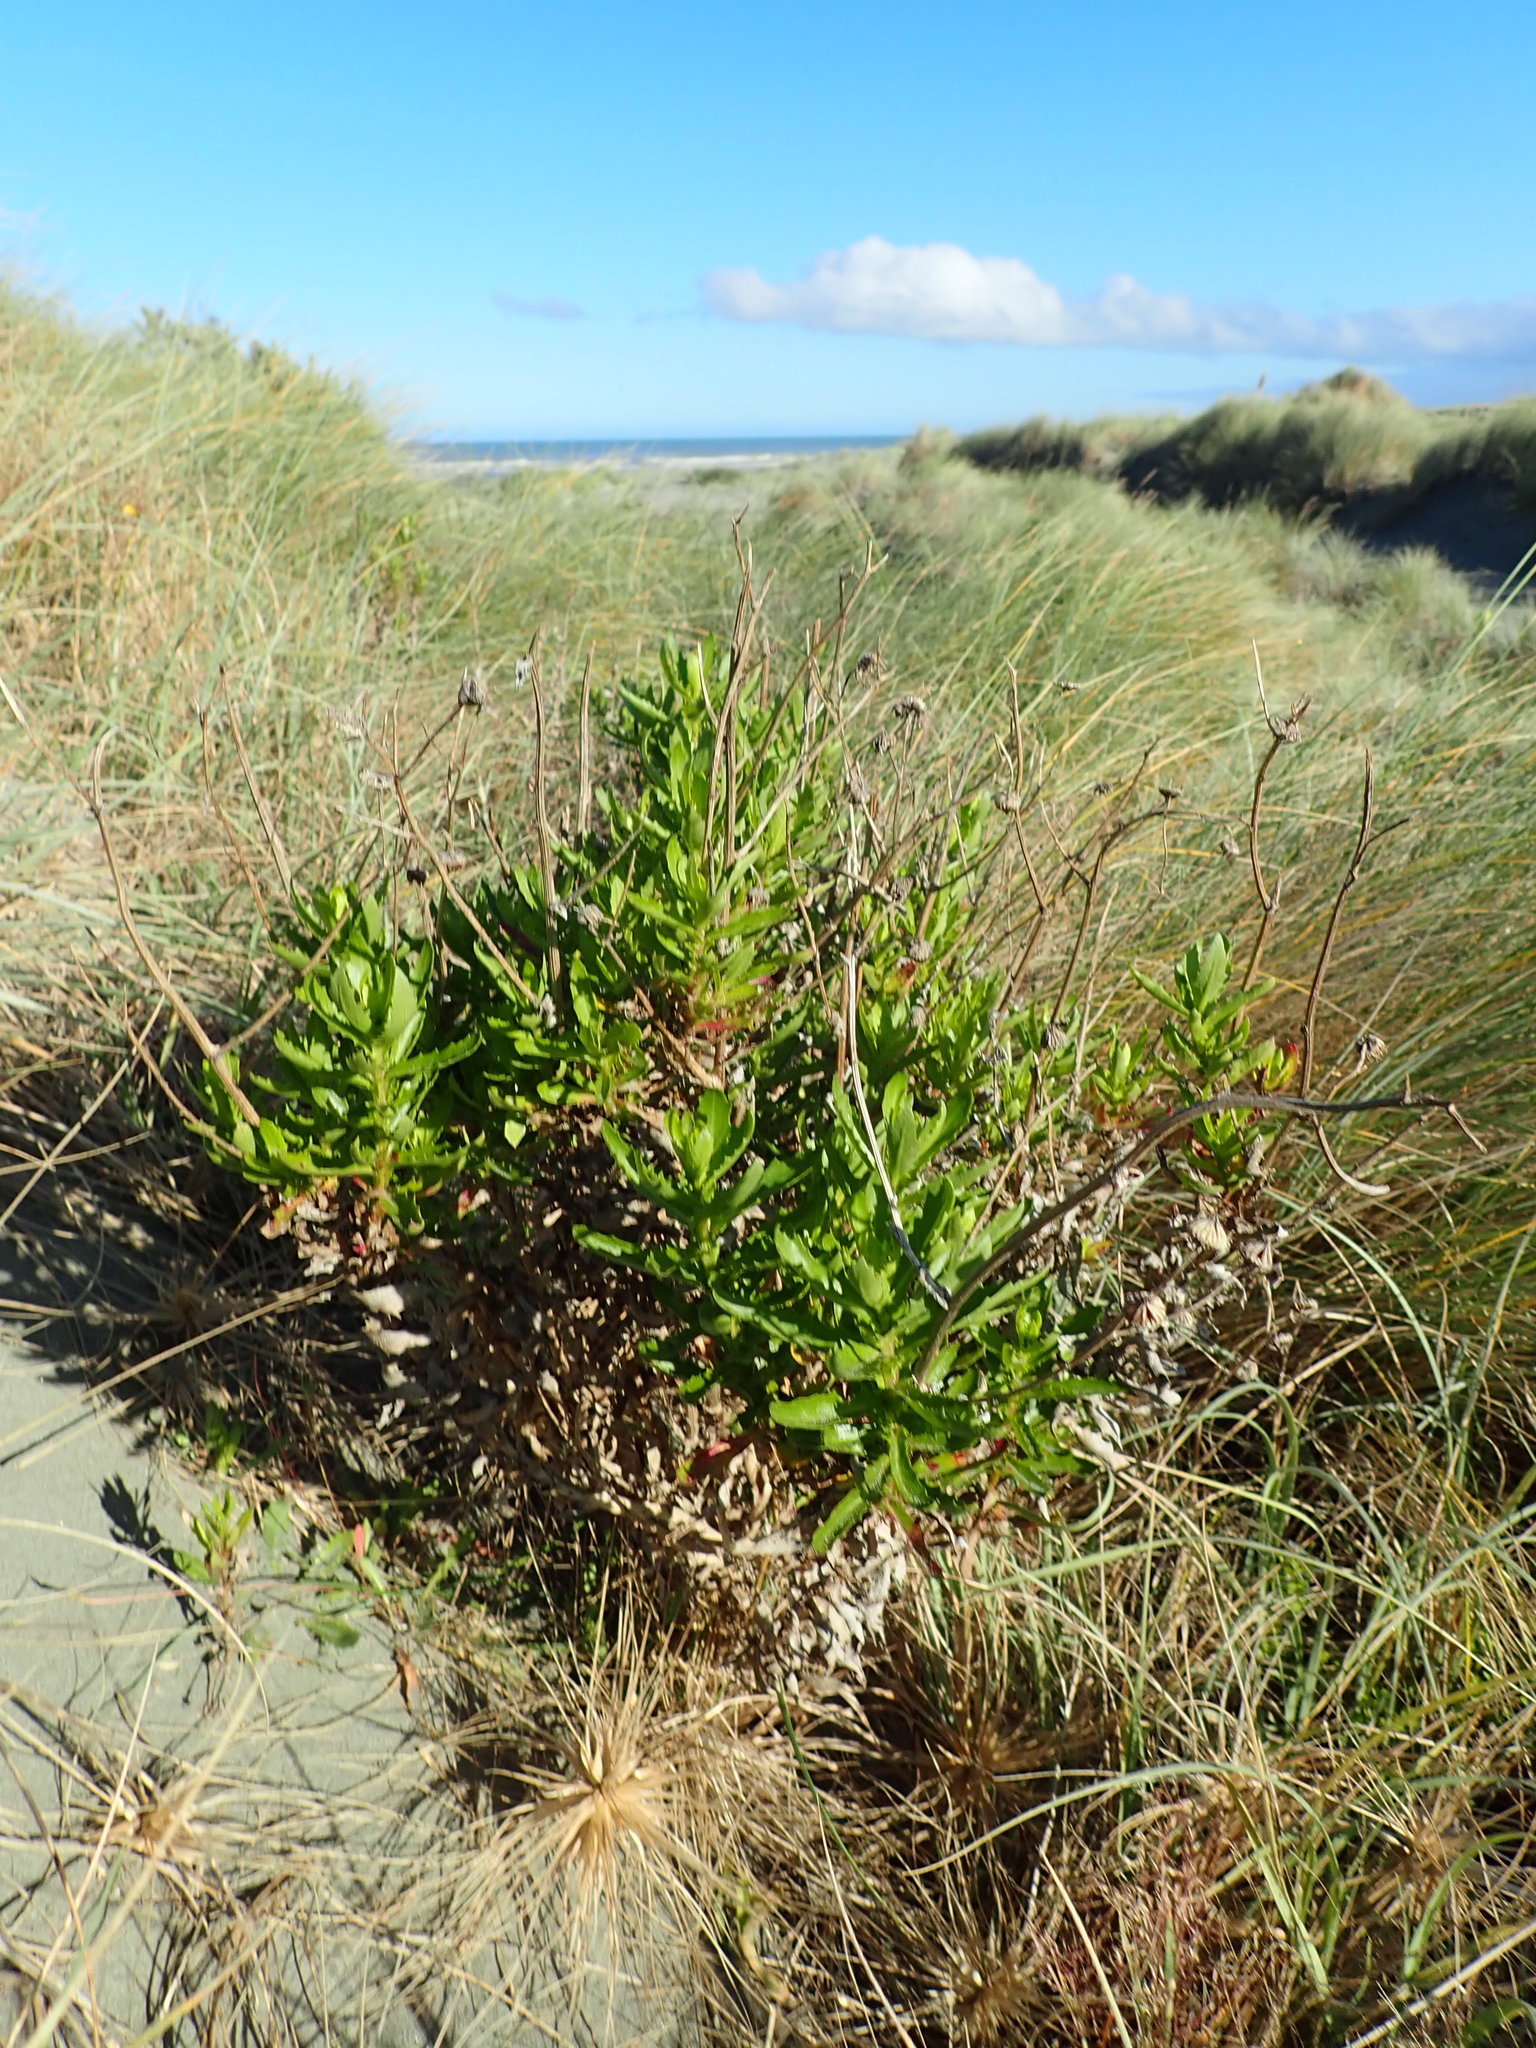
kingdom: Plantae
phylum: Tracheophyta
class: Magnoliopsida
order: Asterales
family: Asteraceae
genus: Senecio
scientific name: Senecio glastifolius
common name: Woad-leaved ragwort
